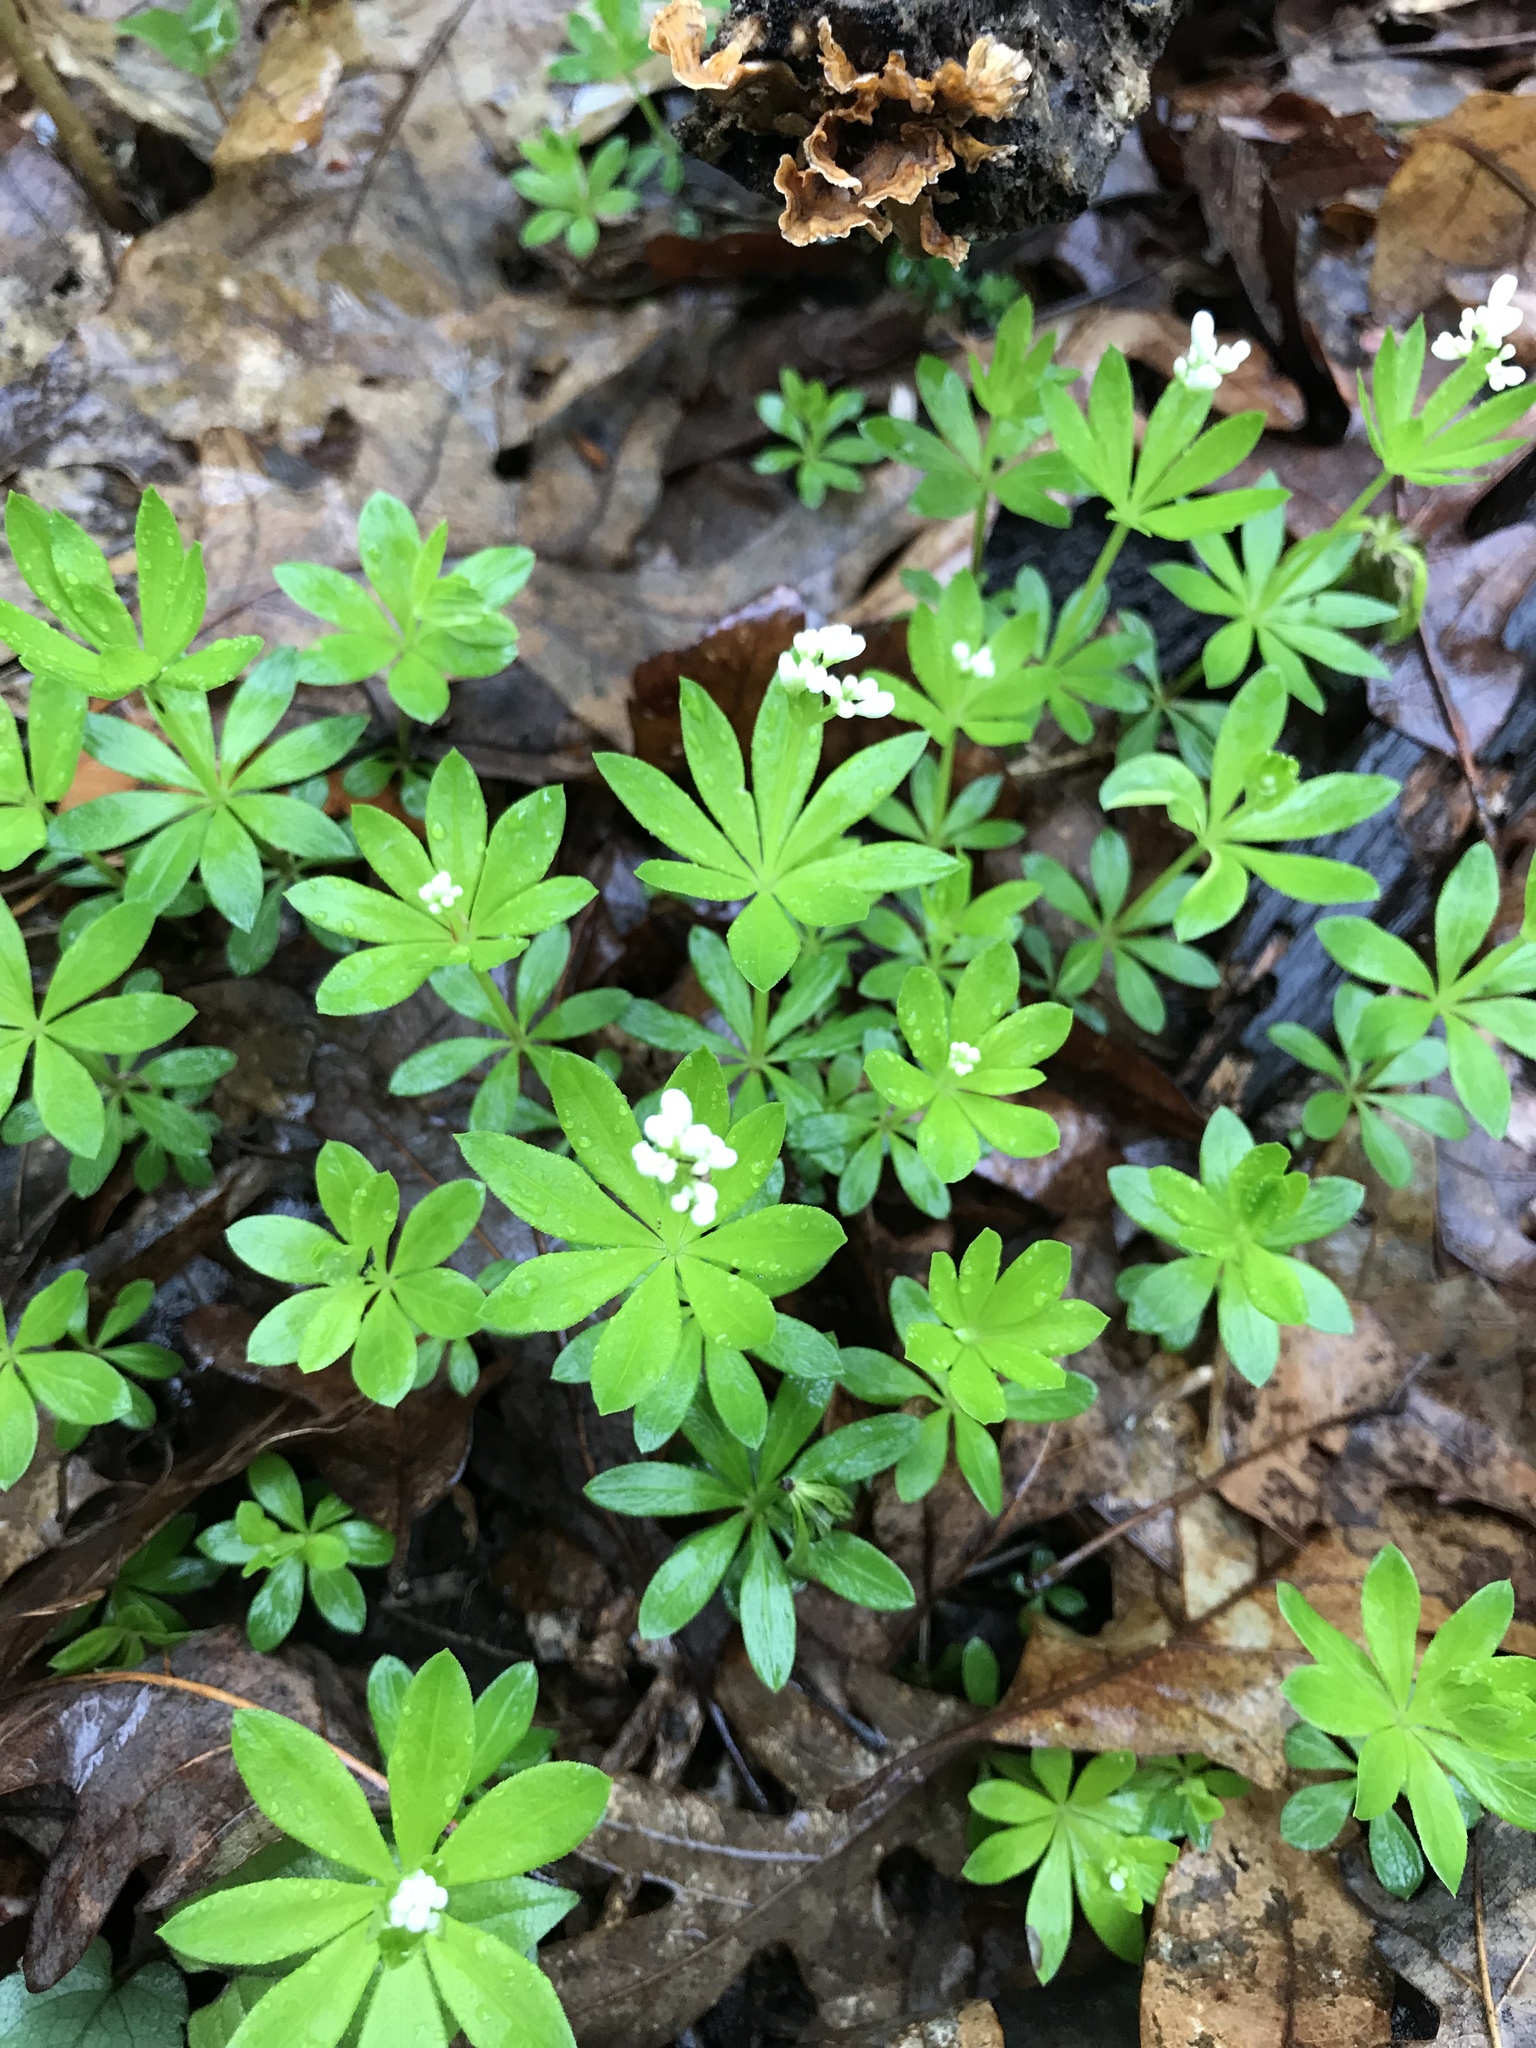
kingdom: Plantae
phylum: Tracheophyta
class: Magnoliopsida
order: Gentianales
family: Rubiaceae
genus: Galium
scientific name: Galium odoratum
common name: Sweet woodruff
